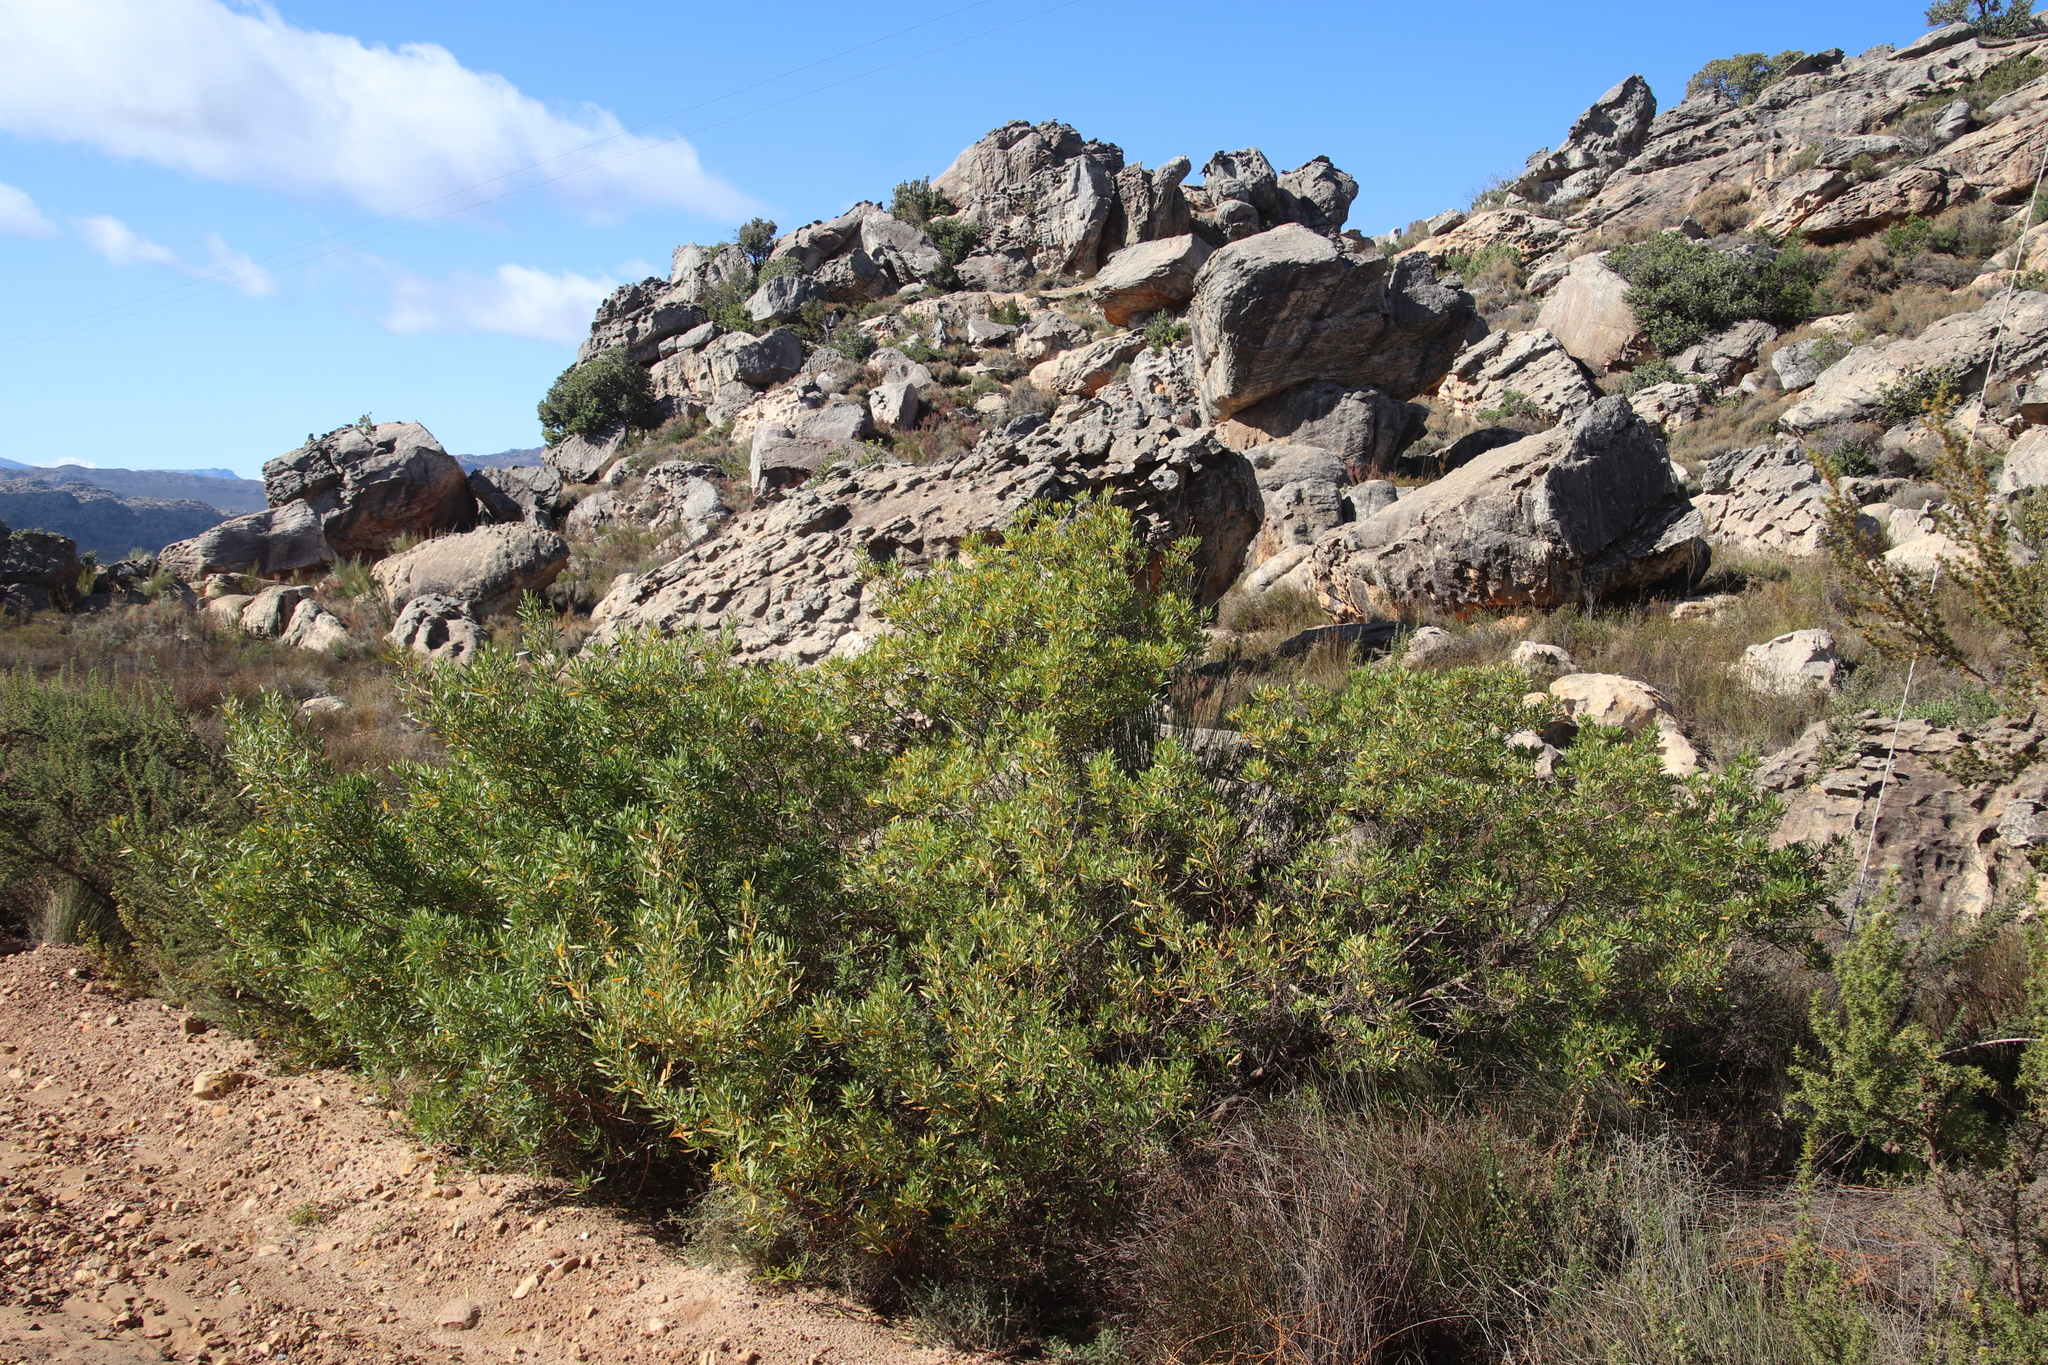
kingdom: Plantae
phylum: Tracheophyta
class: Magnoliopsida
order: Sapindales
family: Sapindaceae
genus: Dodonaea
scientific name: Dodonaea viscosa
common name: Hopbush
